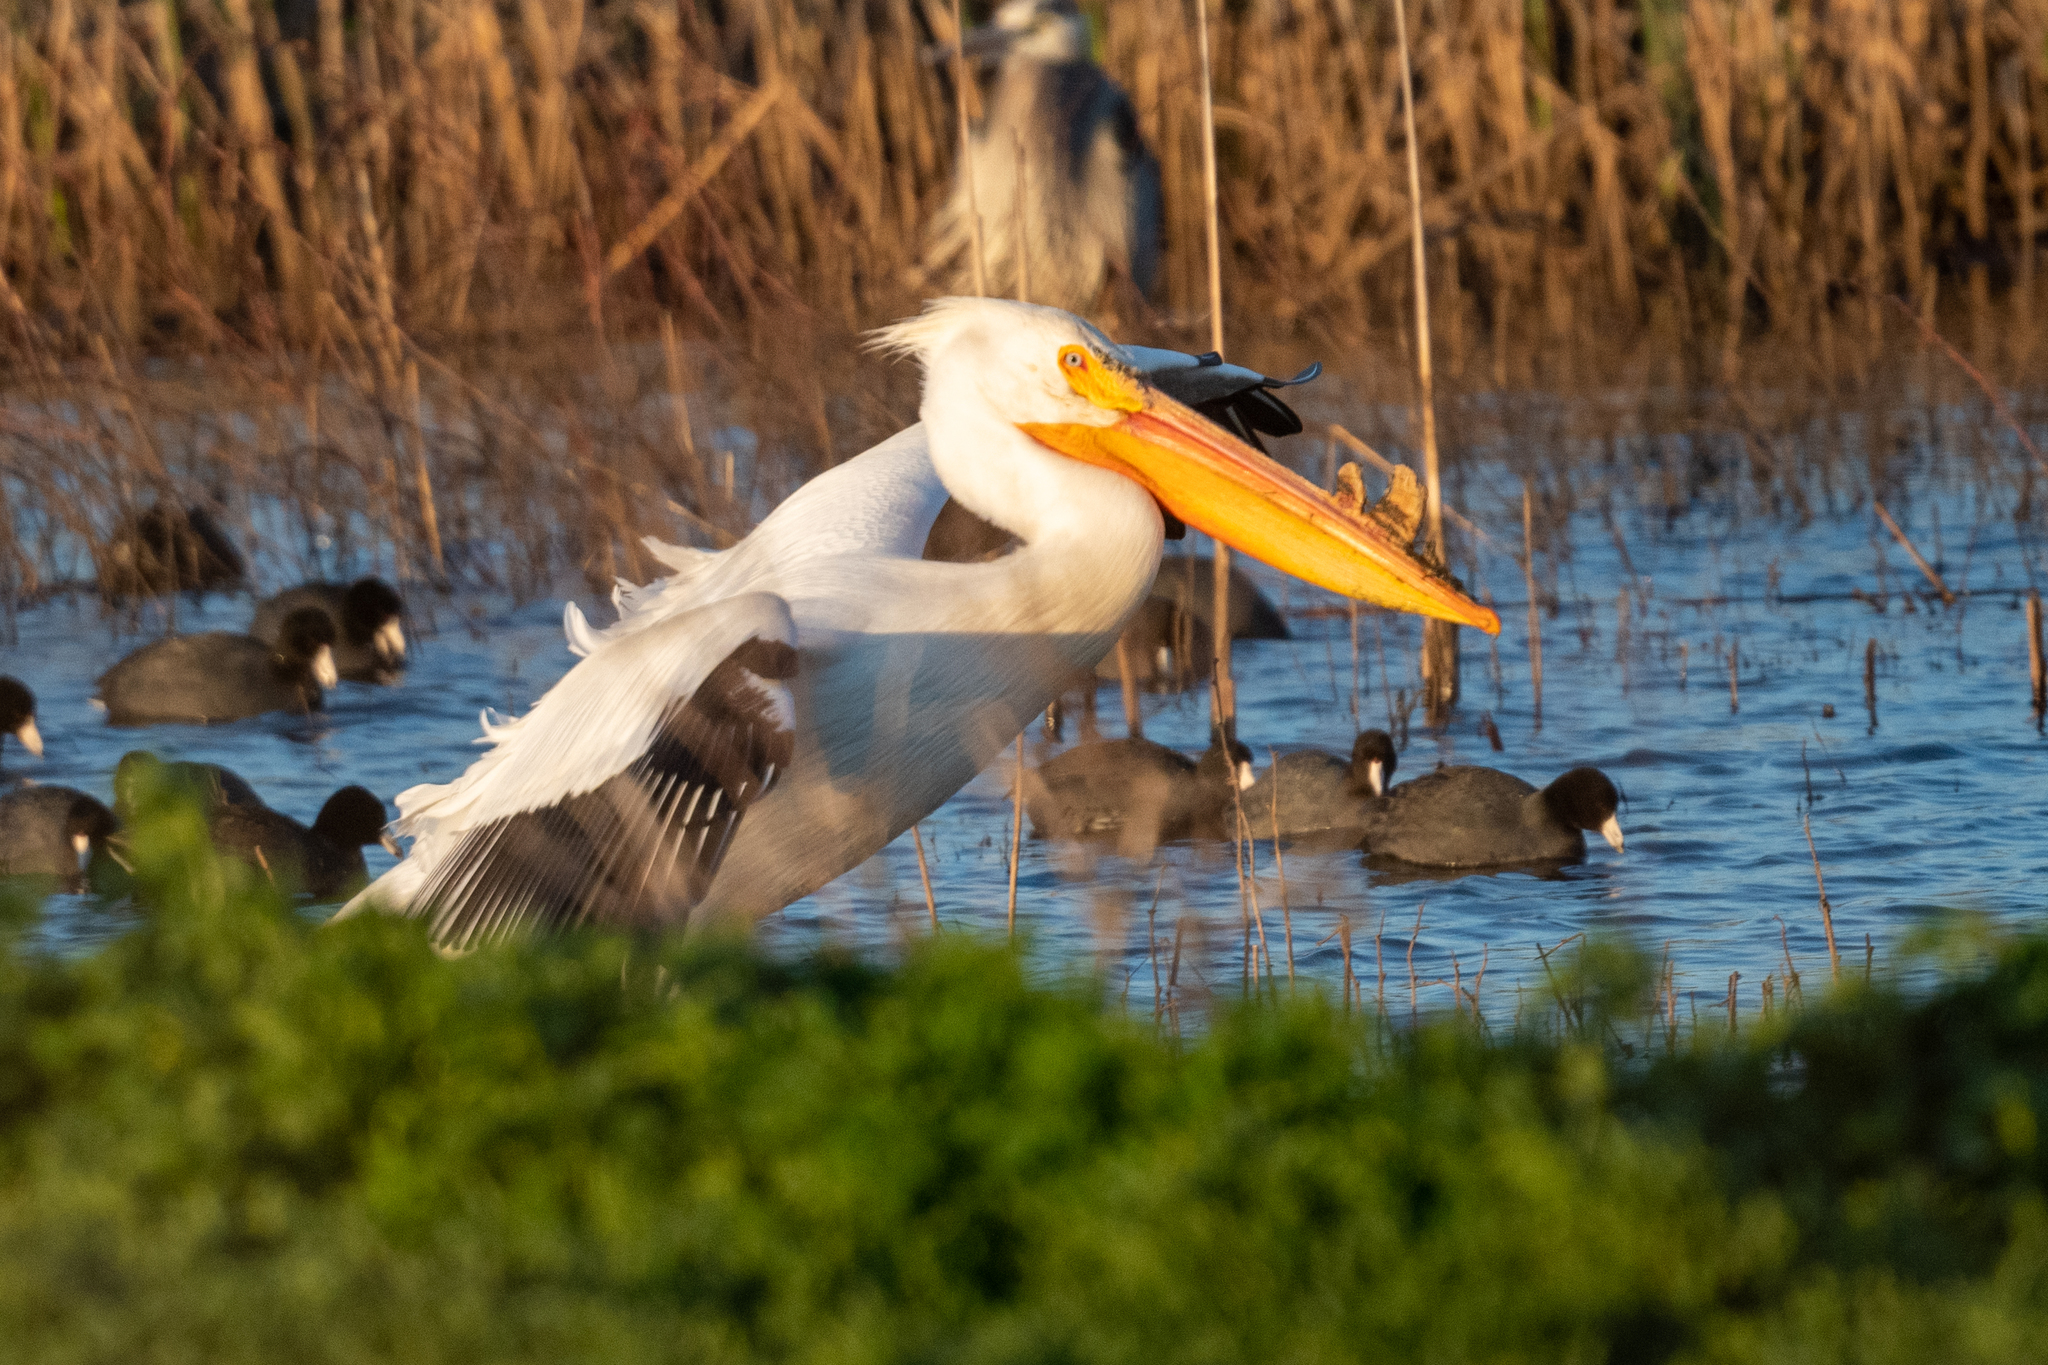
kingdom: Animalia
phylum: Chordata
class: Aves
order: Pelecaniformes
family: Pelecanidae
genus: Pelecanus
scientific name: Pelecanus erythrorhynchos
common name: American white pelican
